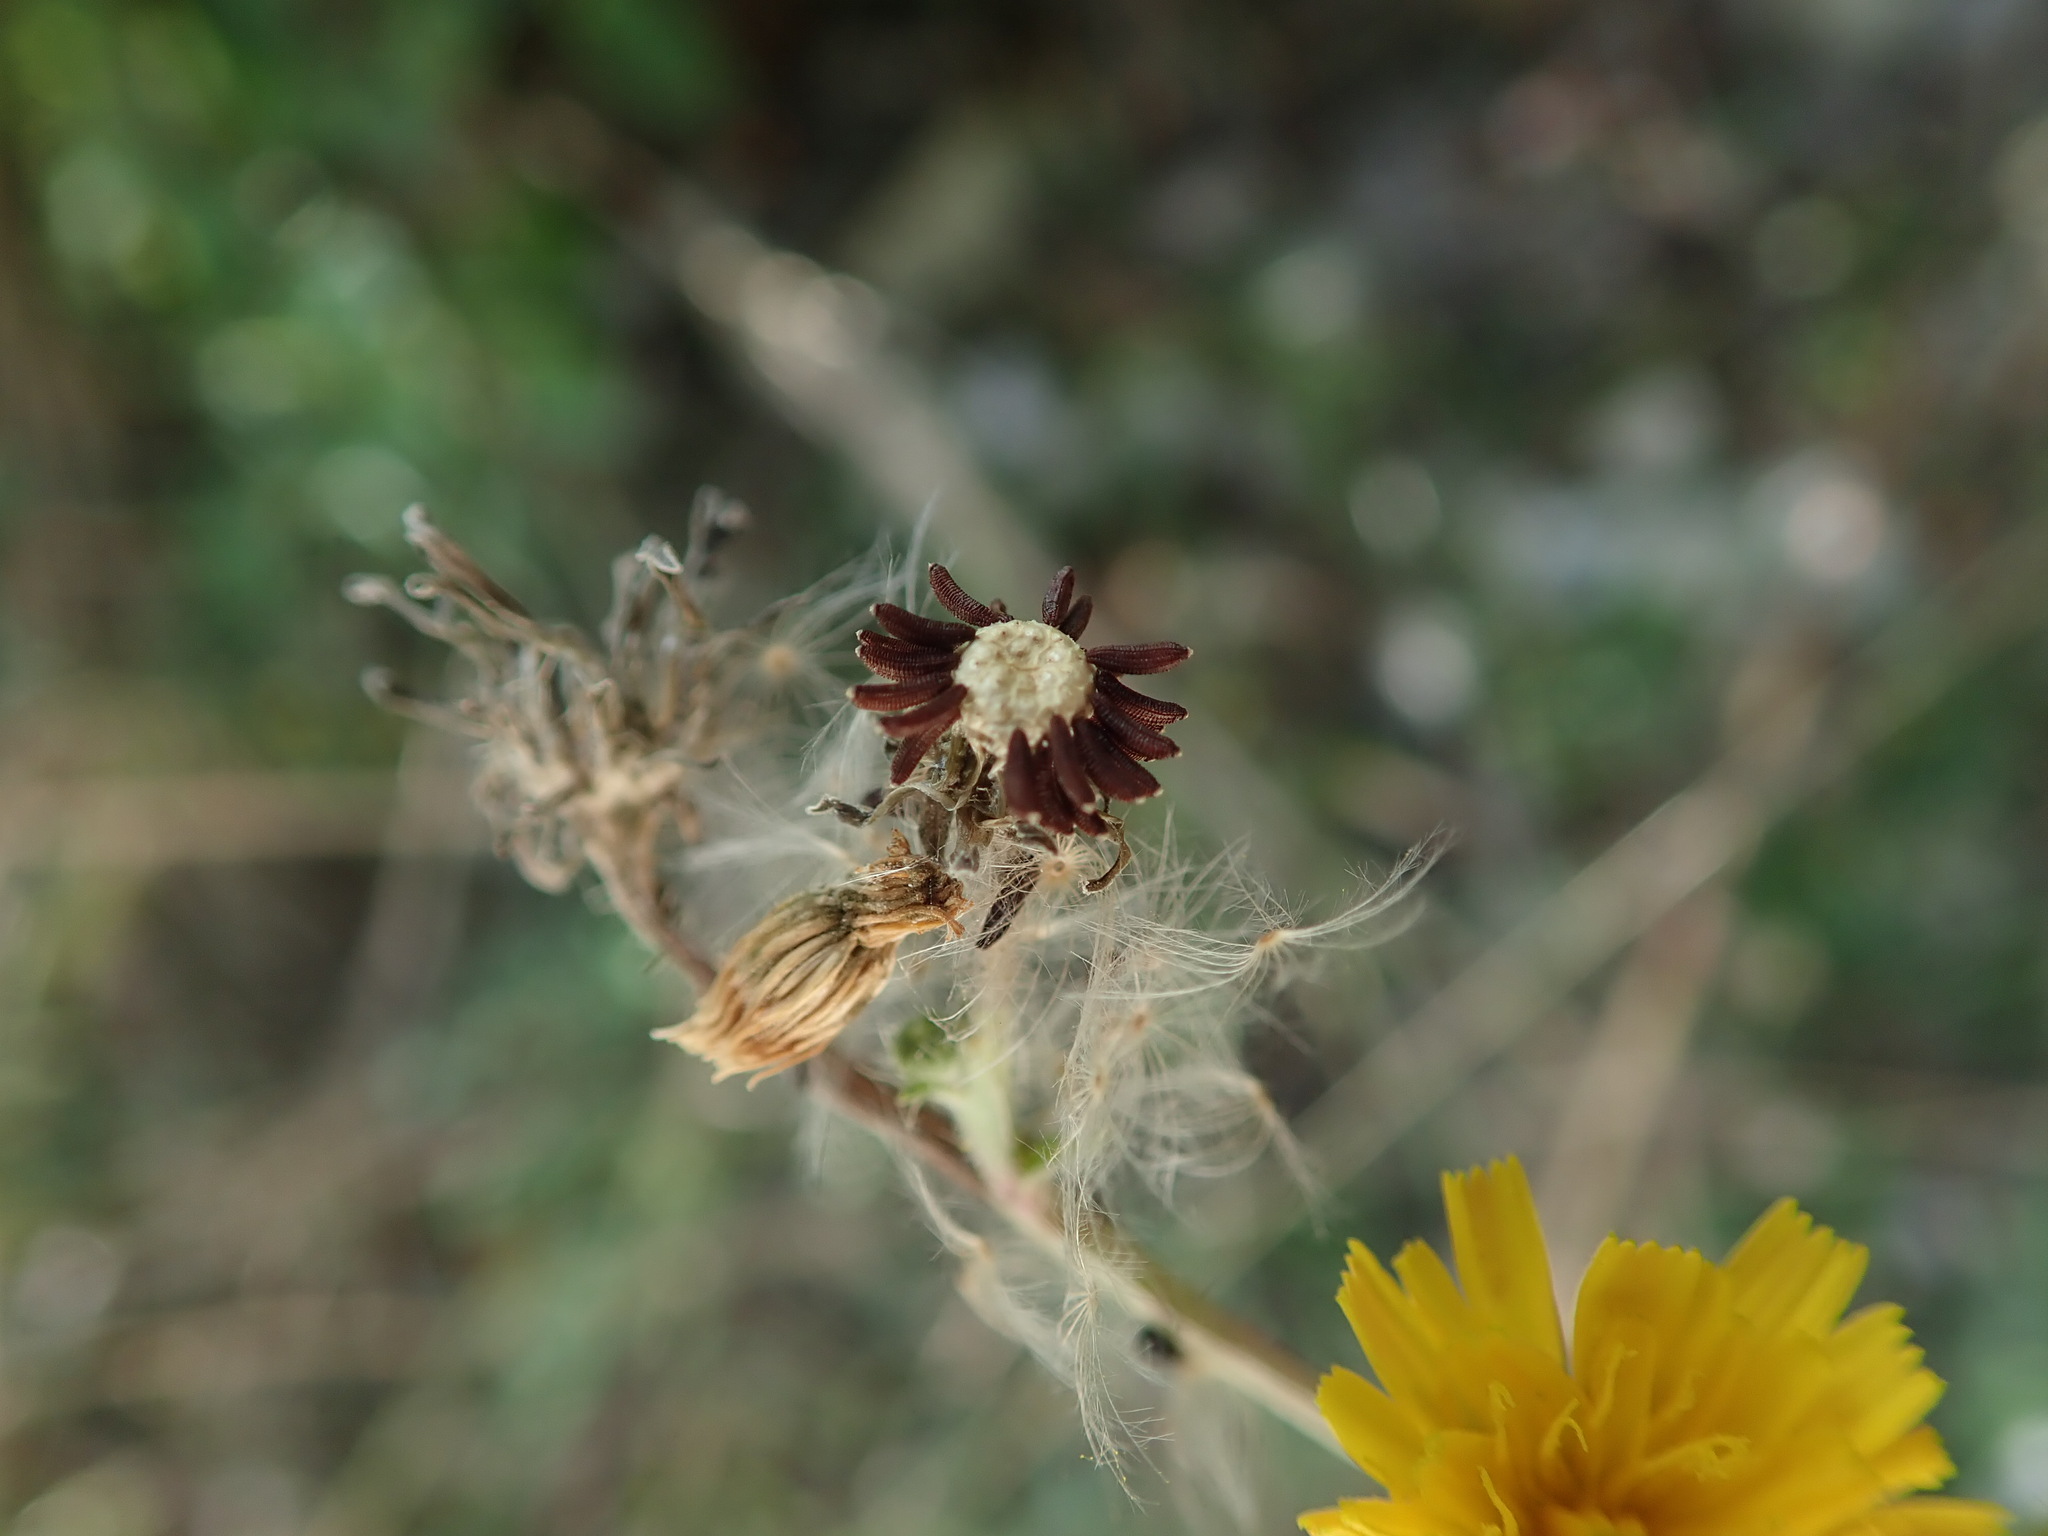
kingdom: Plantae
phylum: Tracheophyta
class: Magnoliopsida
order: Asterales
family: Asteraceae
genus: Picris
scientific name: Picris hieracioides
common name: Hawkweed oxtongue
